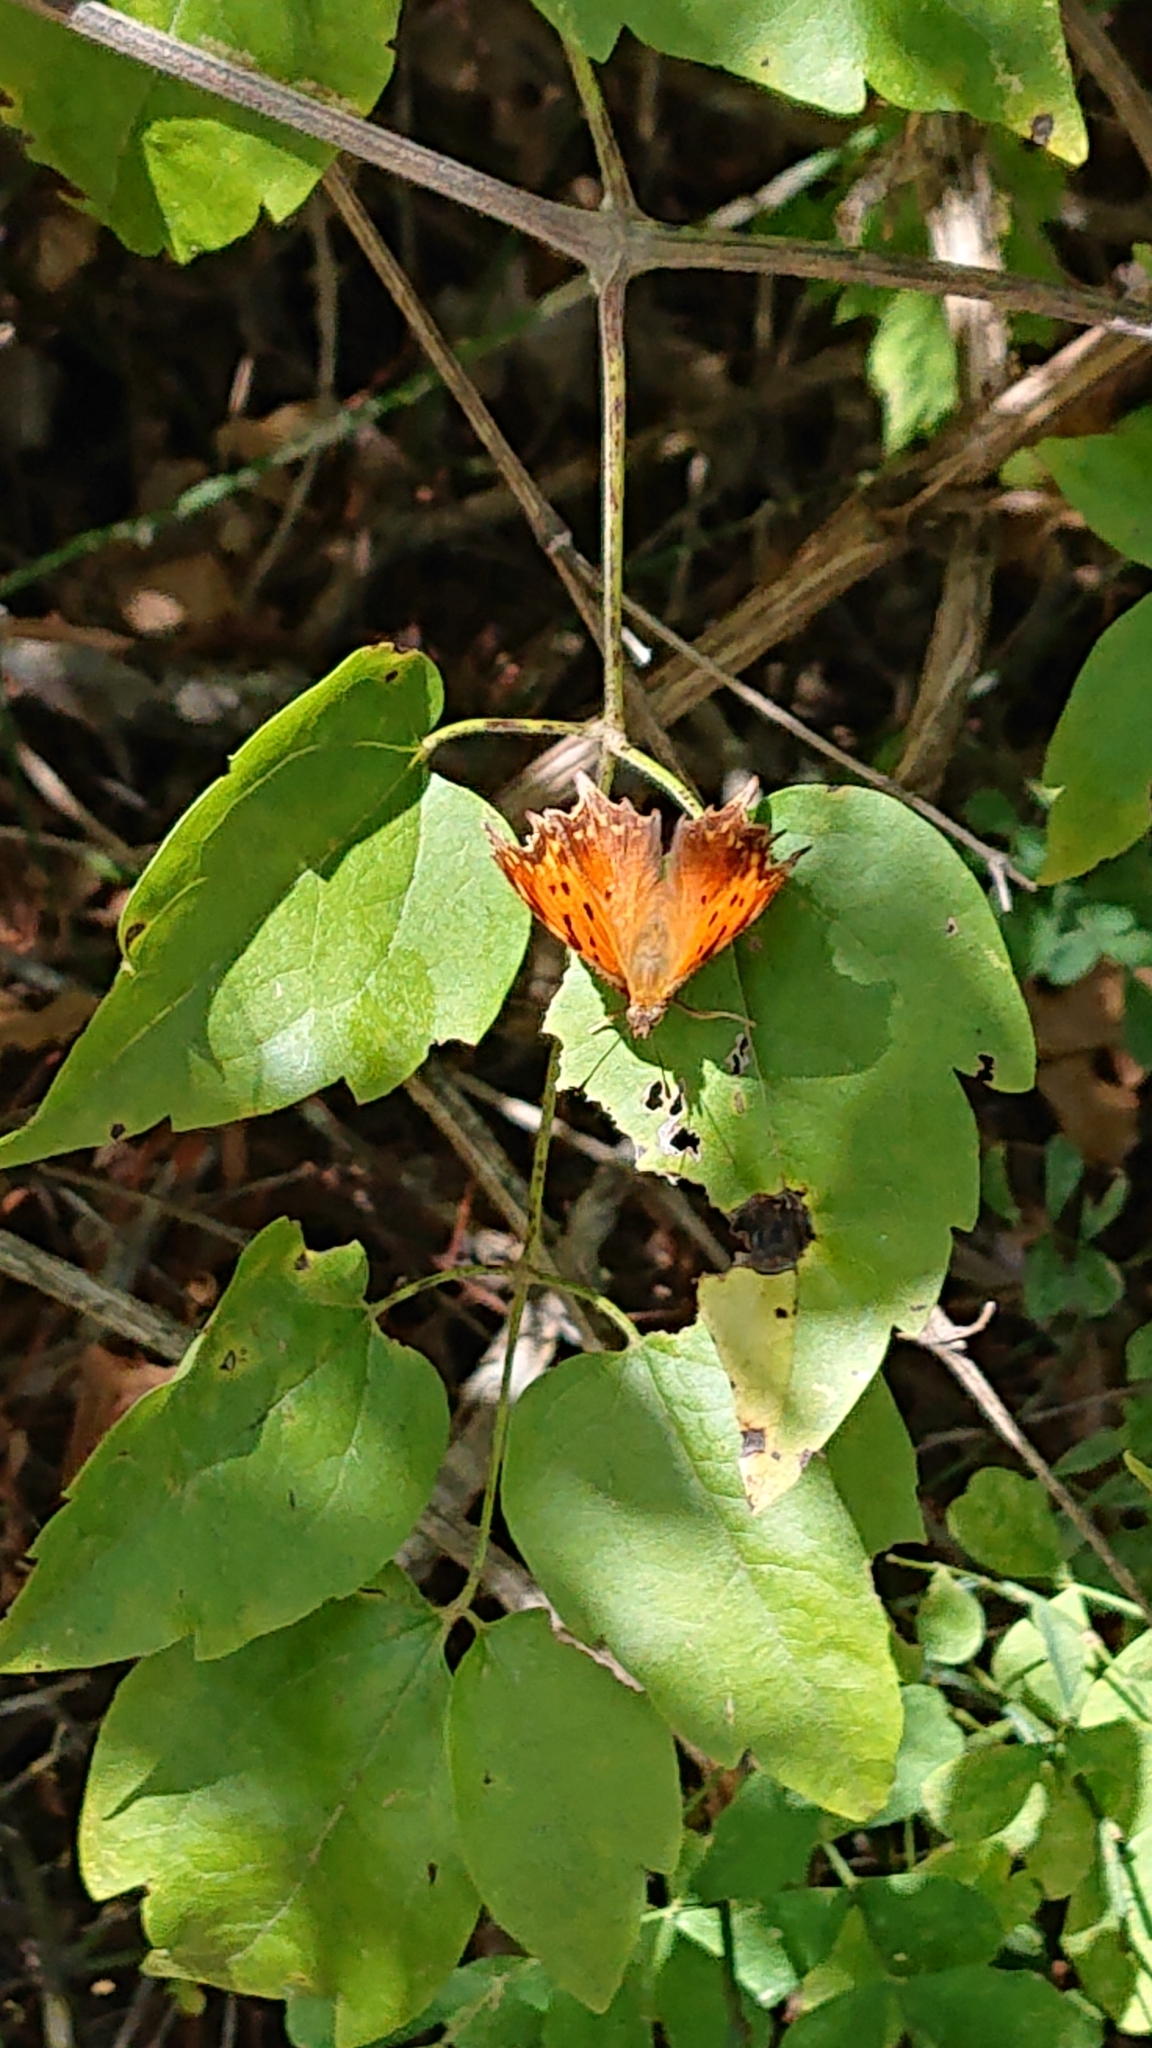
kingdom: Animalia
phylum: Arthropoda
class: Insecta
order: Lepidoptera
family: Nymphalidae
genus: Polygonia
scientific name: Polygonia egea
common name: Southern comma
